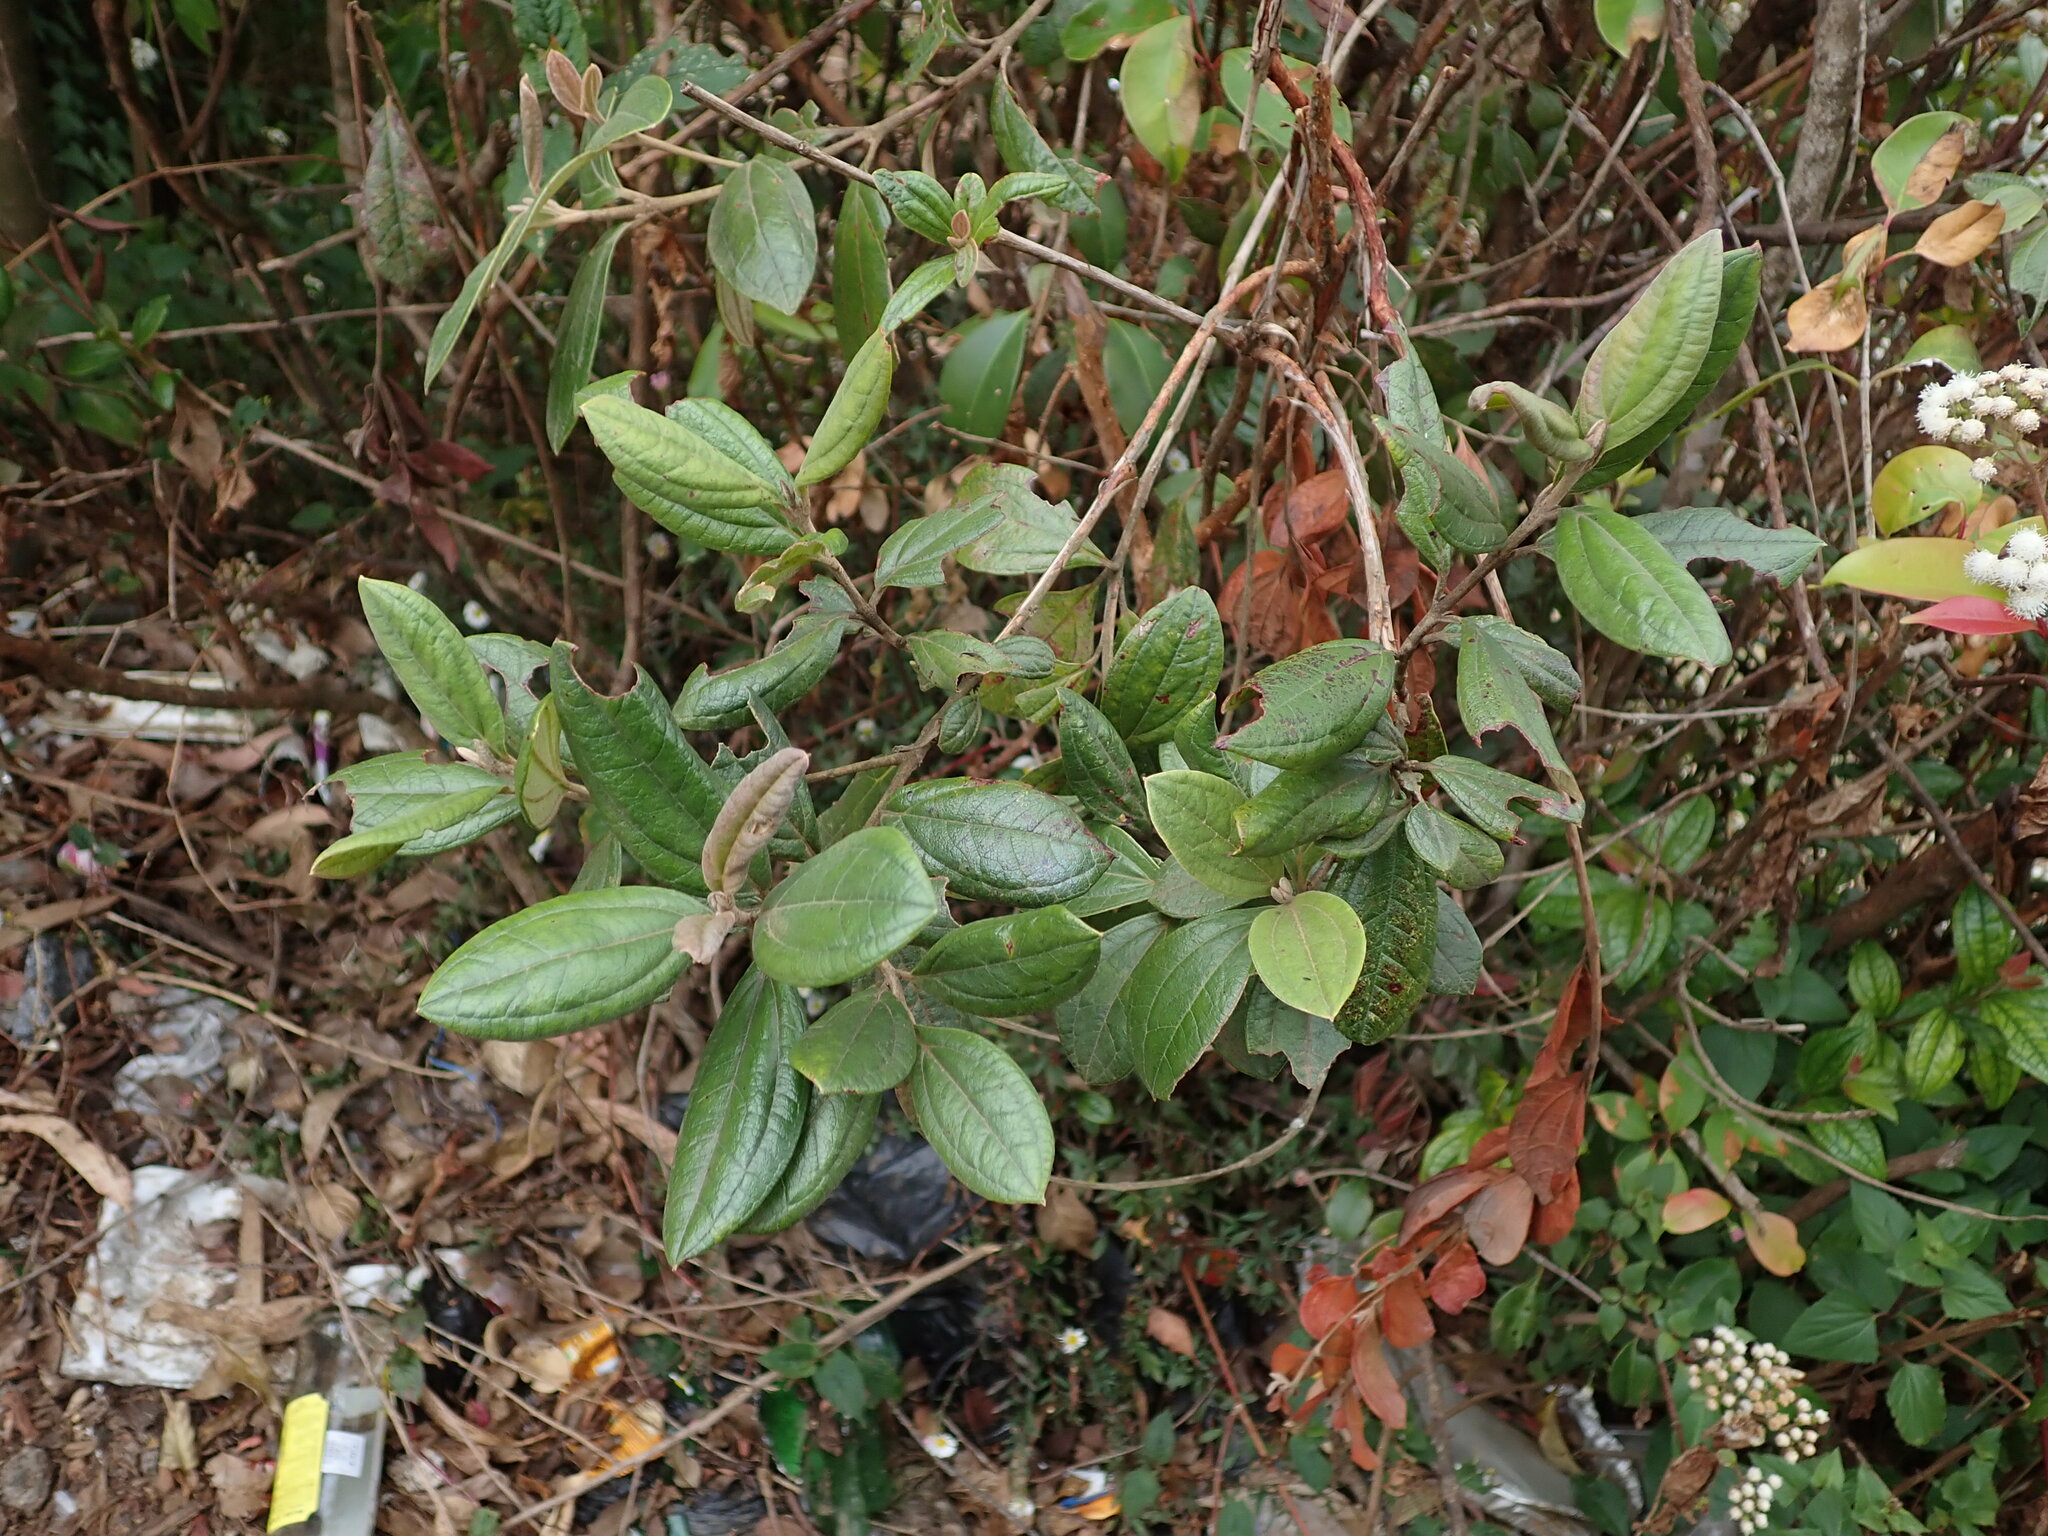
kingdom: Plantae
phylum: Tracheophyta
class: Magnoliopsida
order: Myrtales
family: Myrtaceae
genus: Rhodomyrtus
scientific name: Rhodomyrtus tomentosa
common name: Rose myrtle
